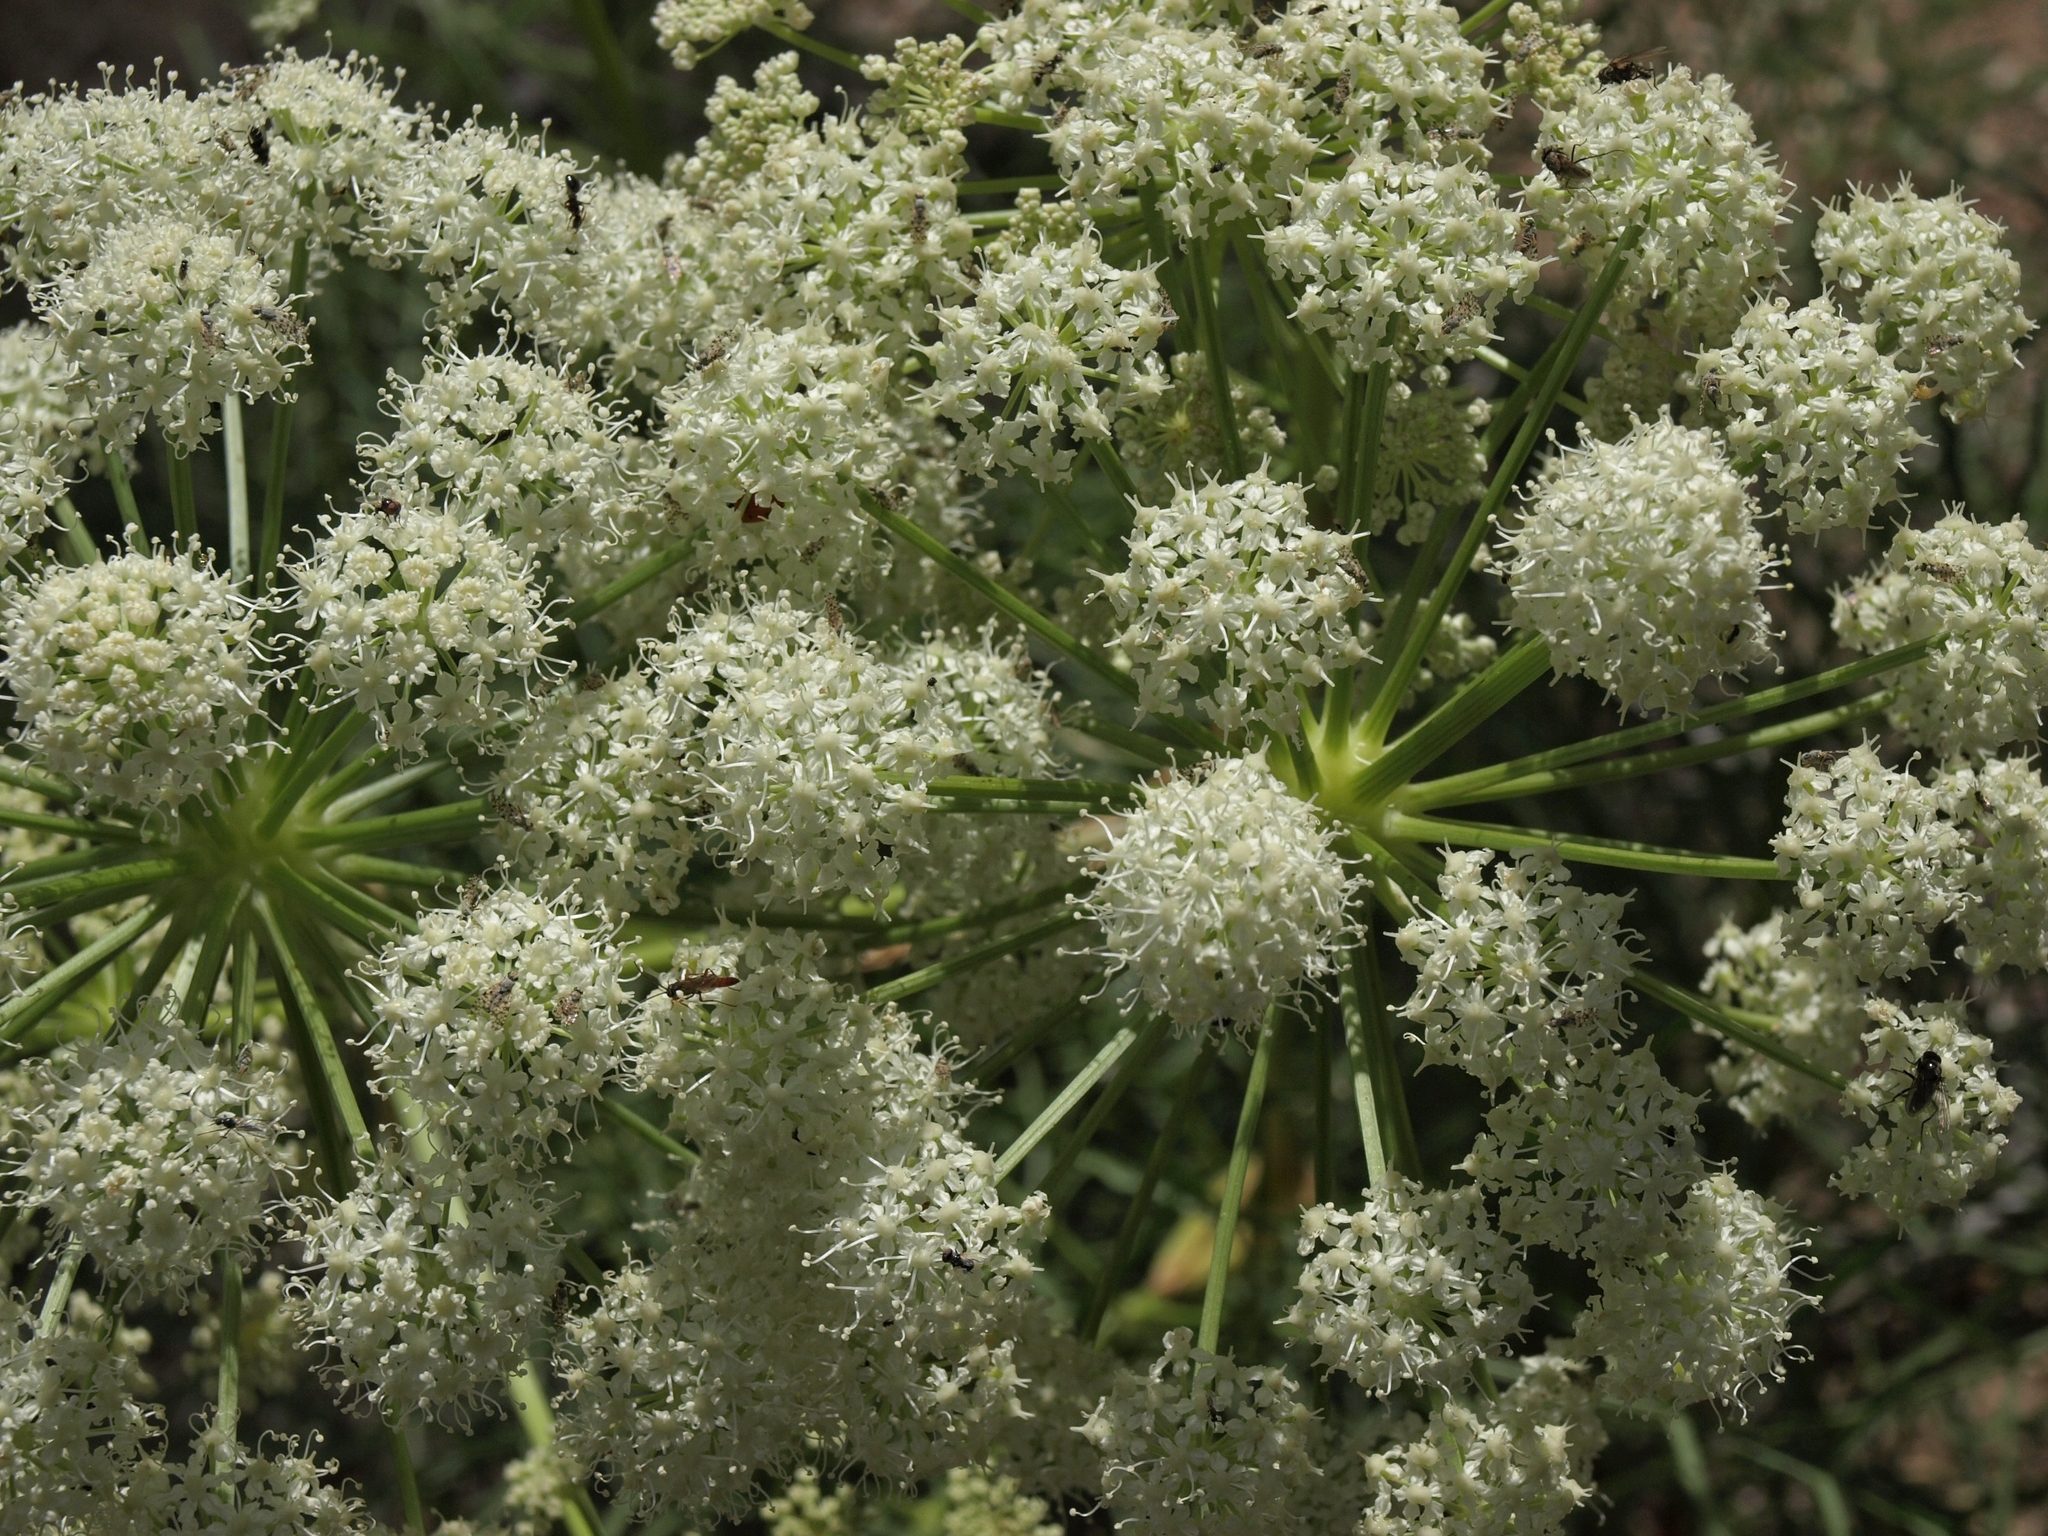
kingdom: Plantae
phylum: Tracheophyta
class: Magnoliopsida
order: Apiales
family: Apiaceae
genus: Angelica
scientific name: Angelica lineariloba
